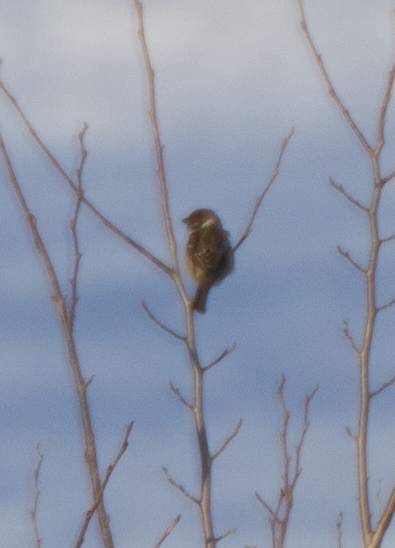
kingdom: Animalia
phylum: Chordata
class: Aves
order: Passeriformes
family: Passeridae
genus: Passer
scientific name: Passer montanus
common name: Eurasian tree sparrow
